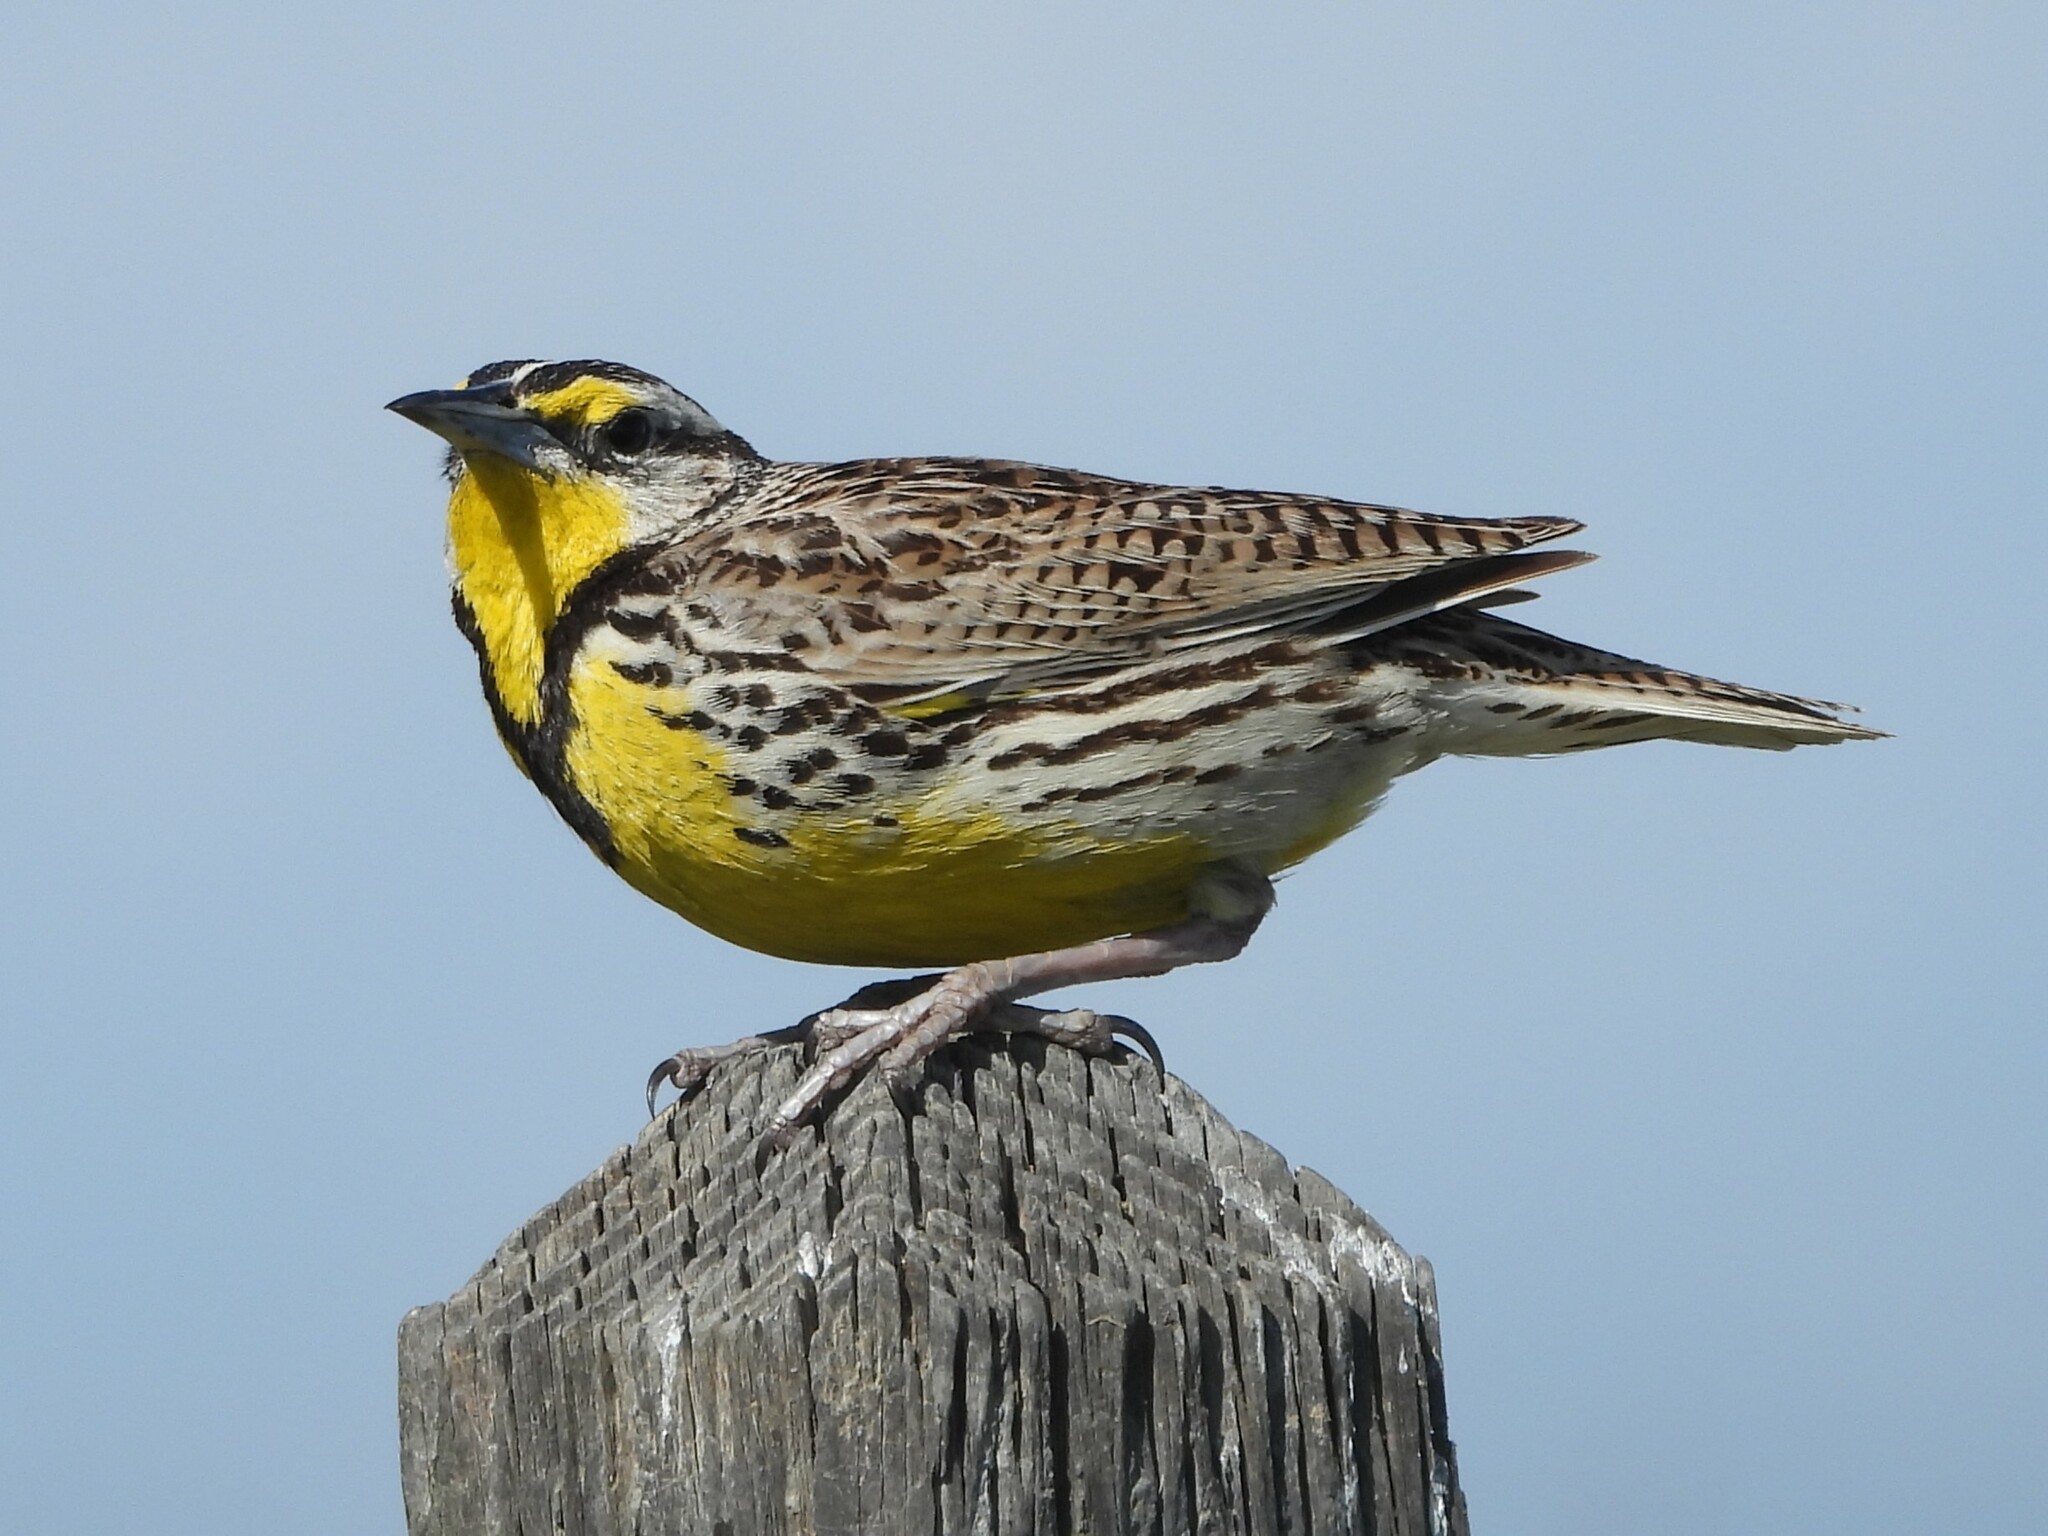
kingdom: Animalia
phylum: Chordata
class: Aves
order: Passeriformes
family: Icteridae
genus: Sturnella
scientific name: Sturnella neglecta
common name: Western meadowlark
